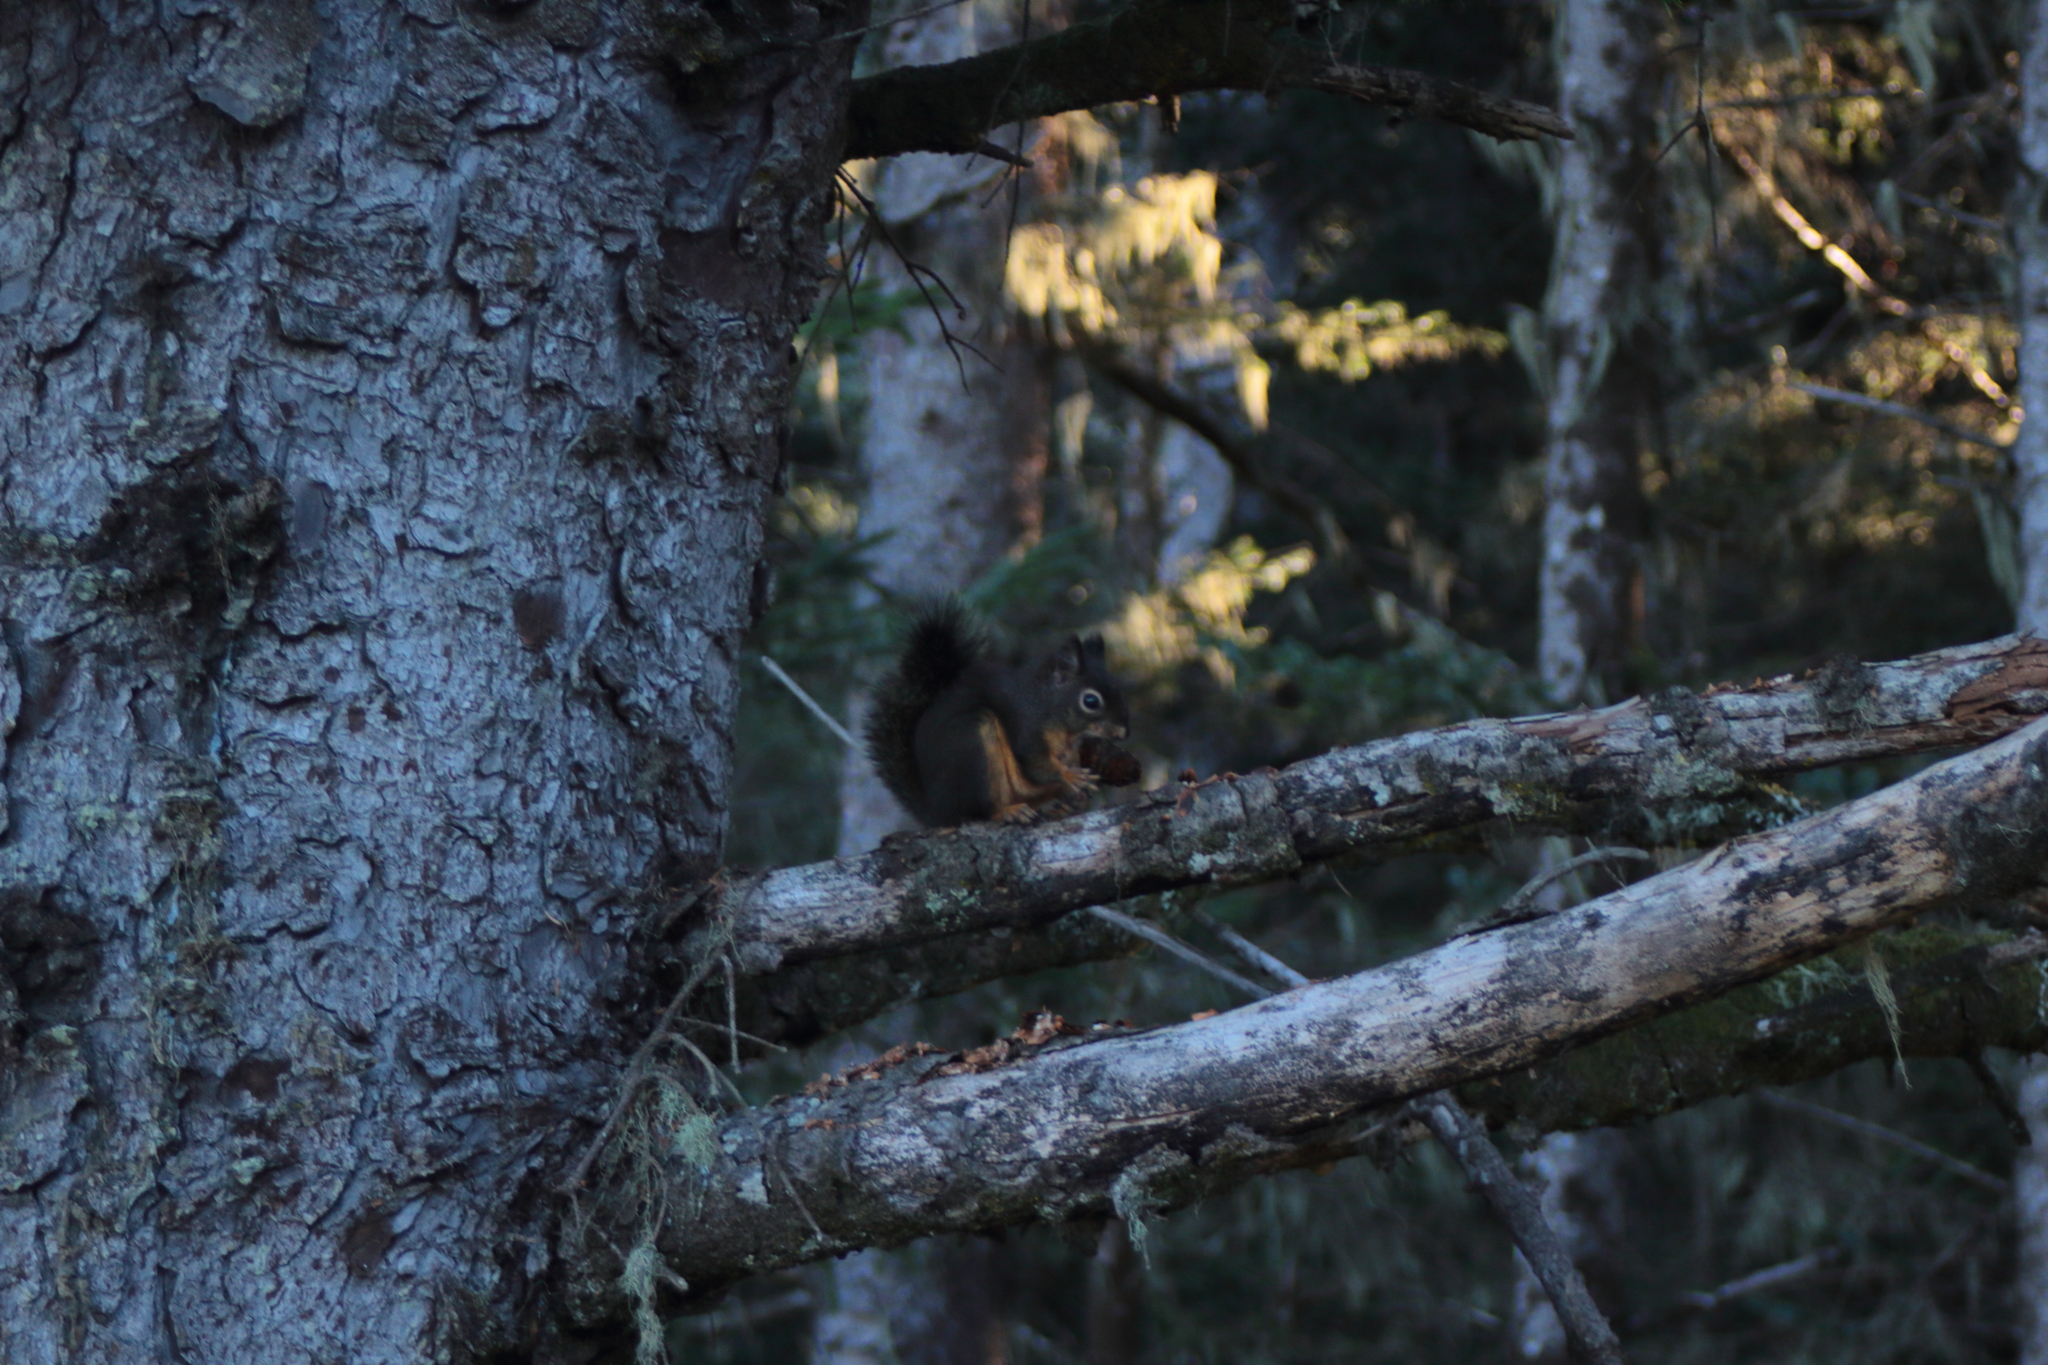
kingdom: Animalia
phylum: Chordata
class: Mammalia
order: Rodentia
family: Sciuridae
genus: Tamiasciurus
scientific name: Tamiasciurus douglasii
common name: Douglas's squirrel
